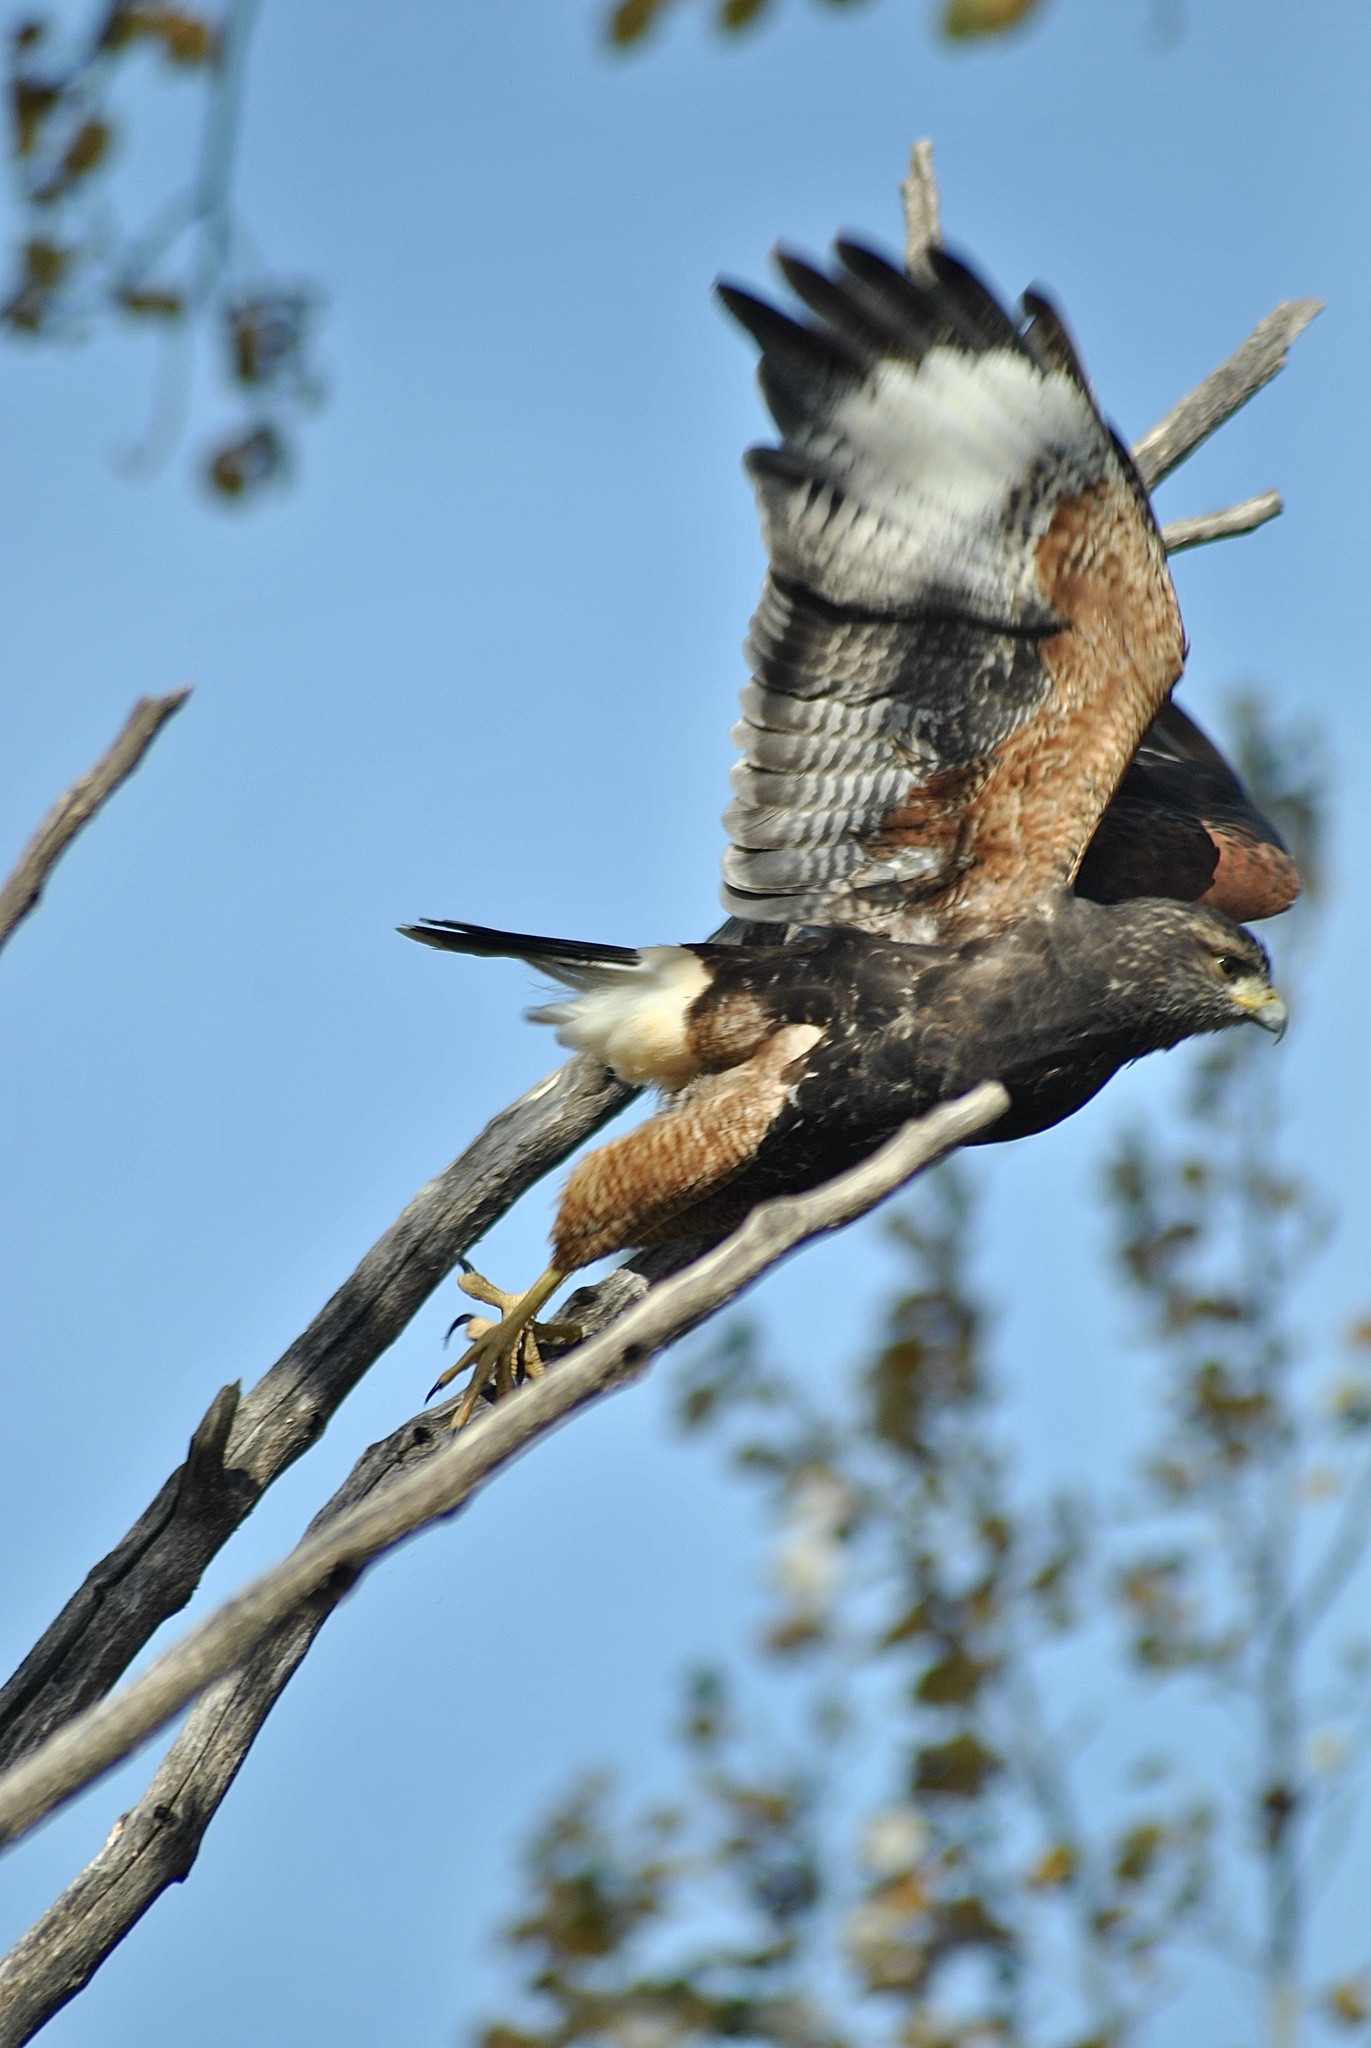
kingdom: Animalia
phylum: Chordata
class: Aves
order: Accipitriformes
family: Accipitridae
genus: Parabuteo
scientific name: Parabuteo unicinctus
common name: Harris's hawk
